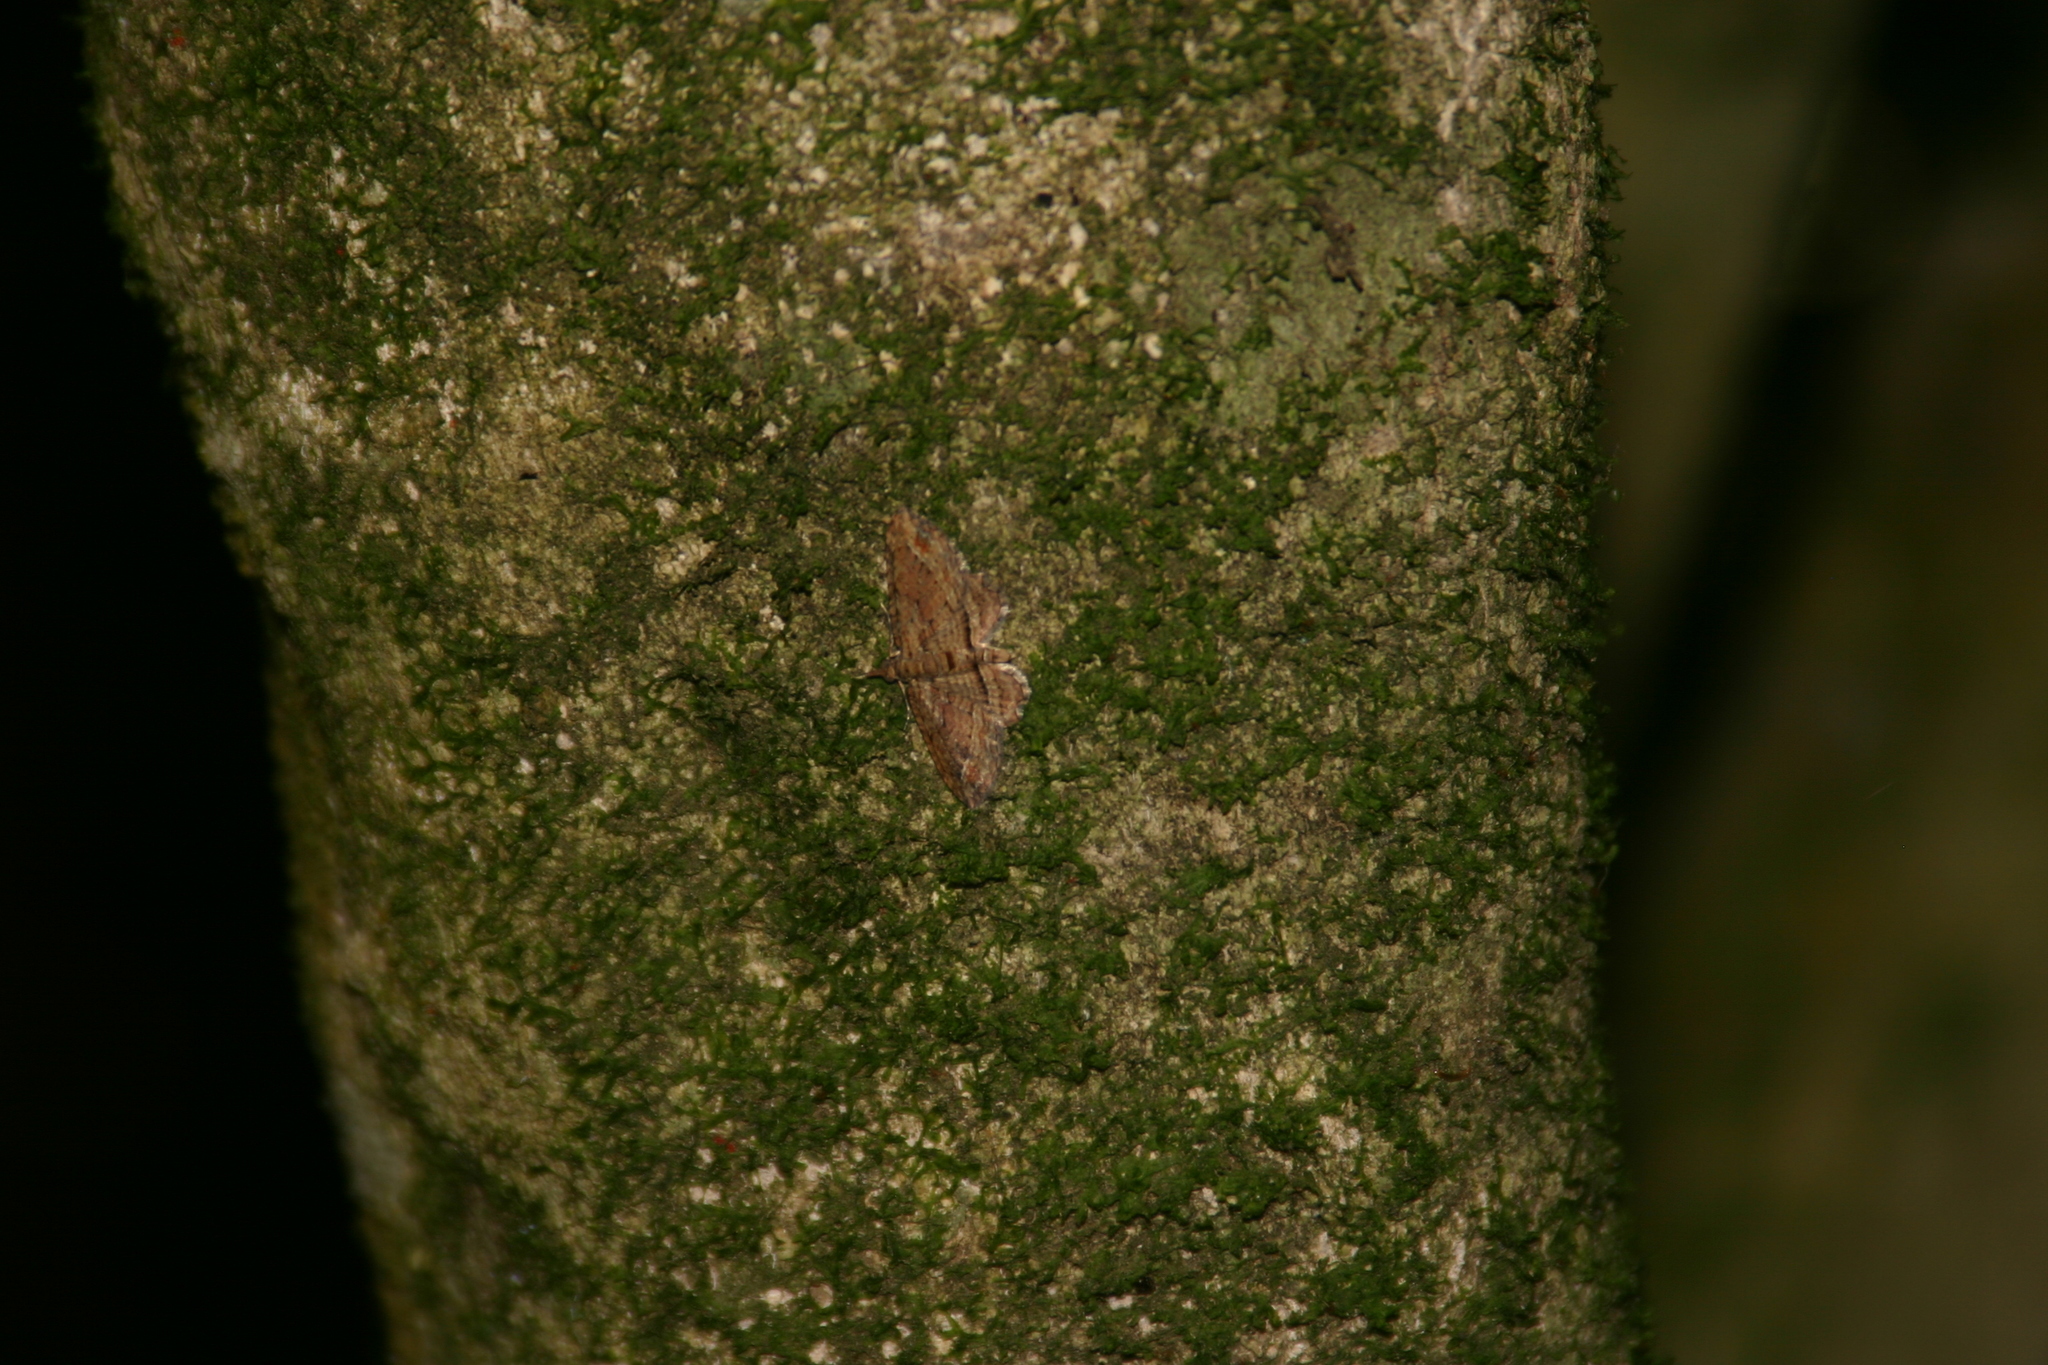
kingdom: Animalia
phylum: Arthropoda
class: Insecta
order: Lepidoptera
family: Geometridae
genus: Chloroclystis
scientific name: Chloroclystis filata
